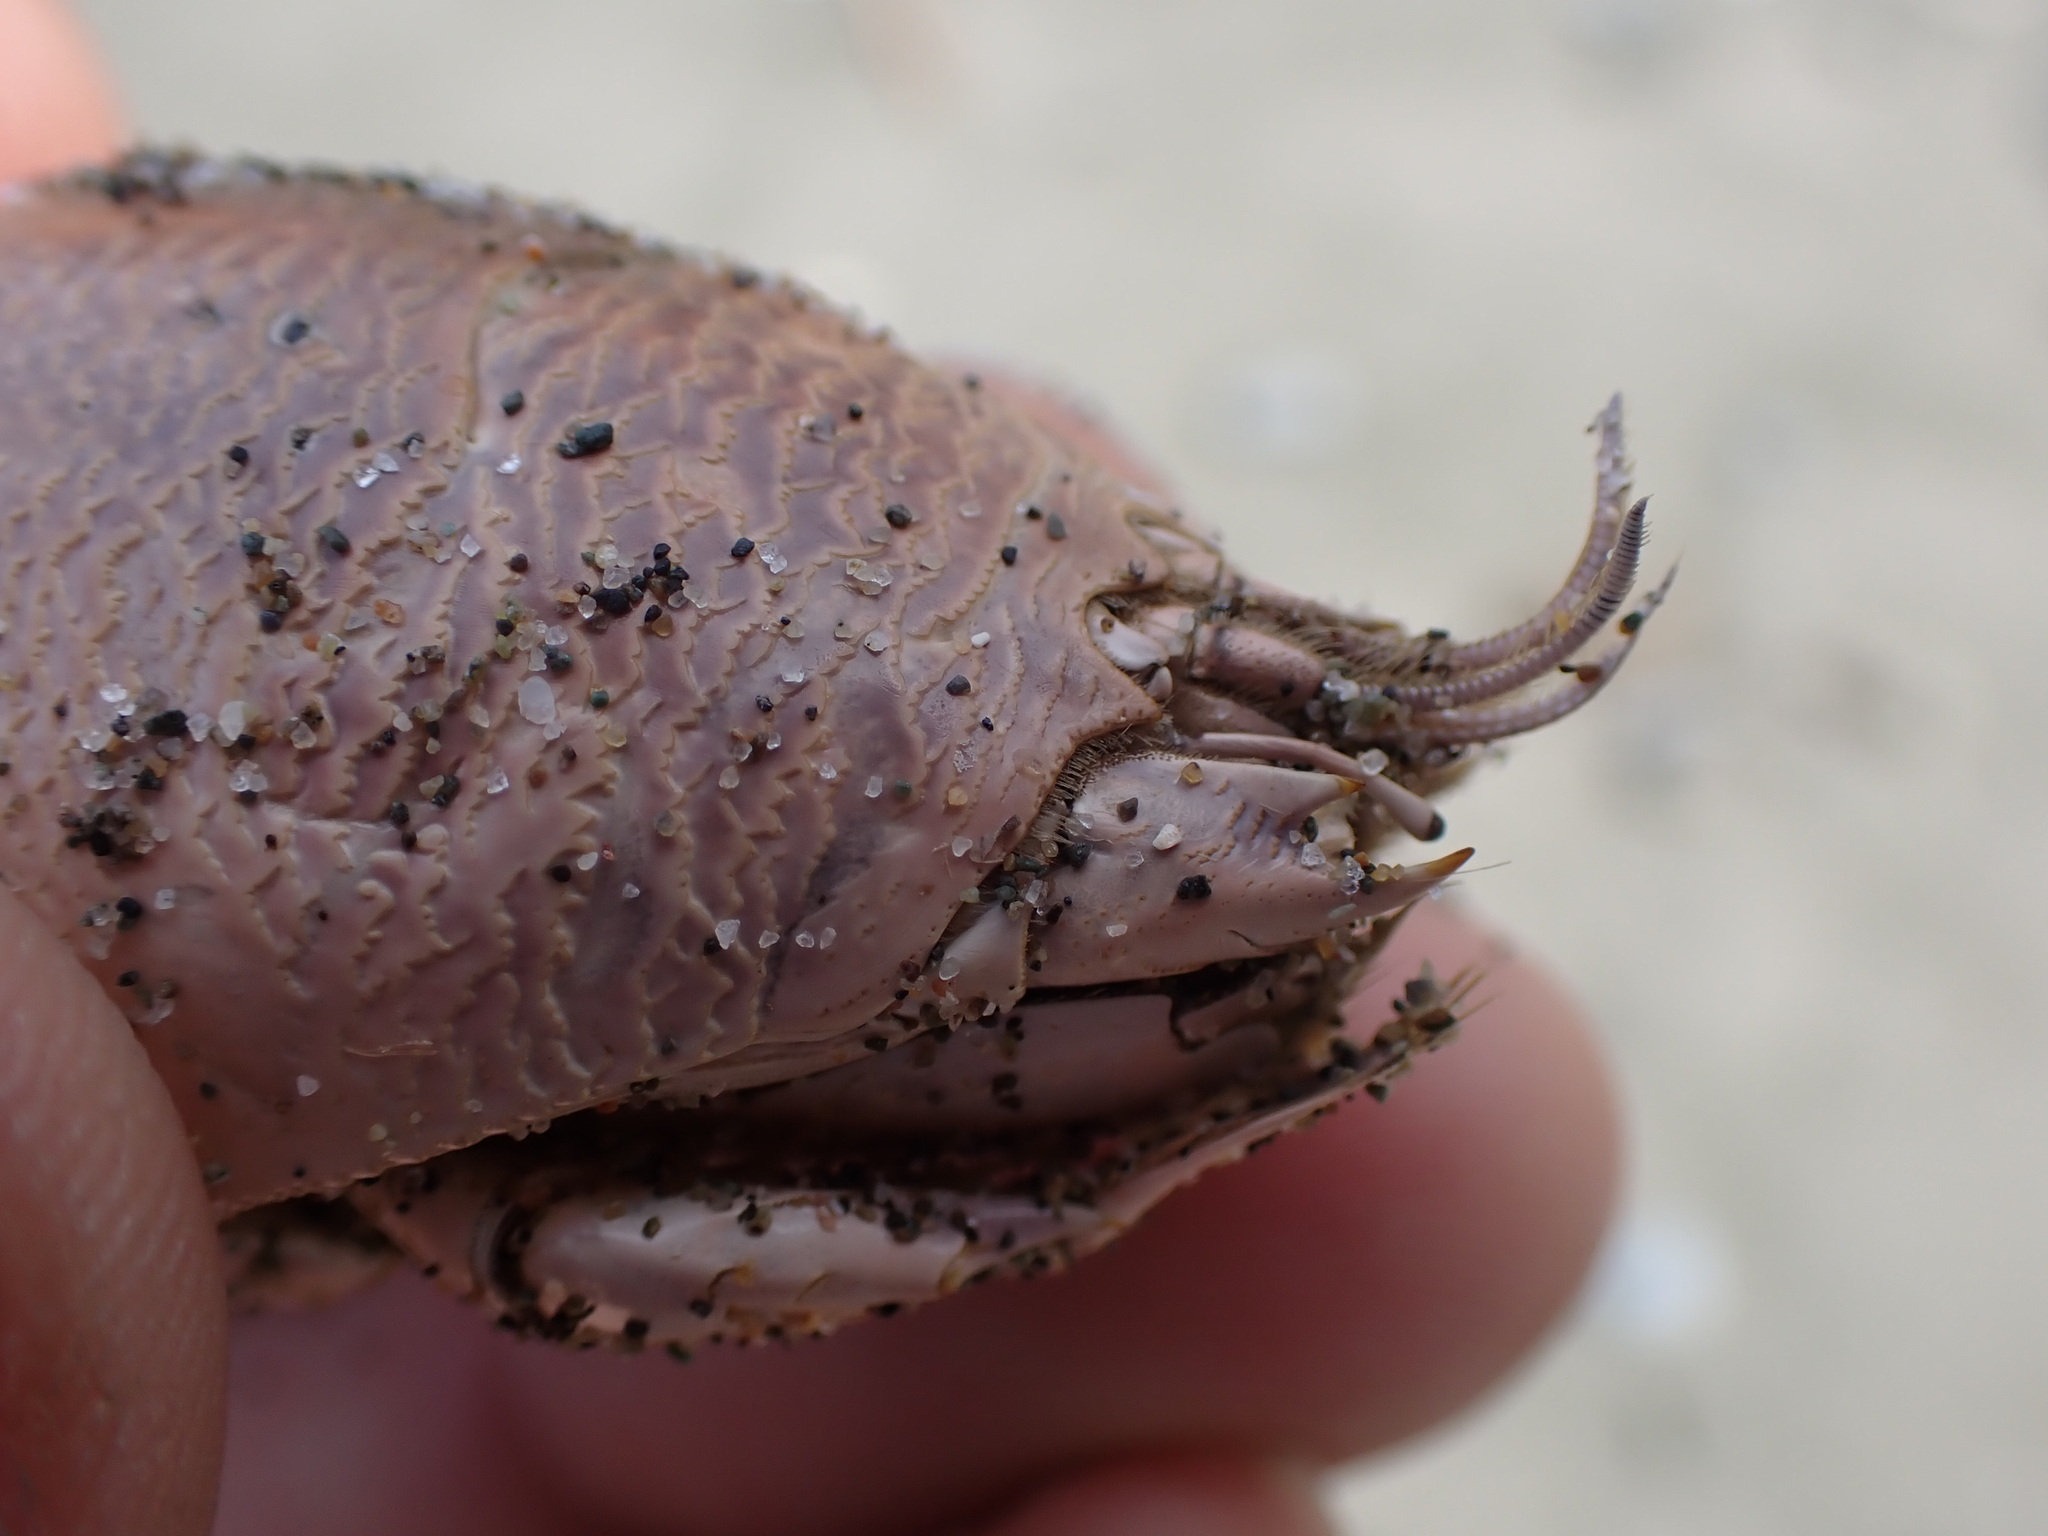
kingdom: Animalia
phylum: Arthropoda
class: Malacostraca
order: Decapoda
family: Hippidae
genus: Emerita
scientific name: Emerita analoga
